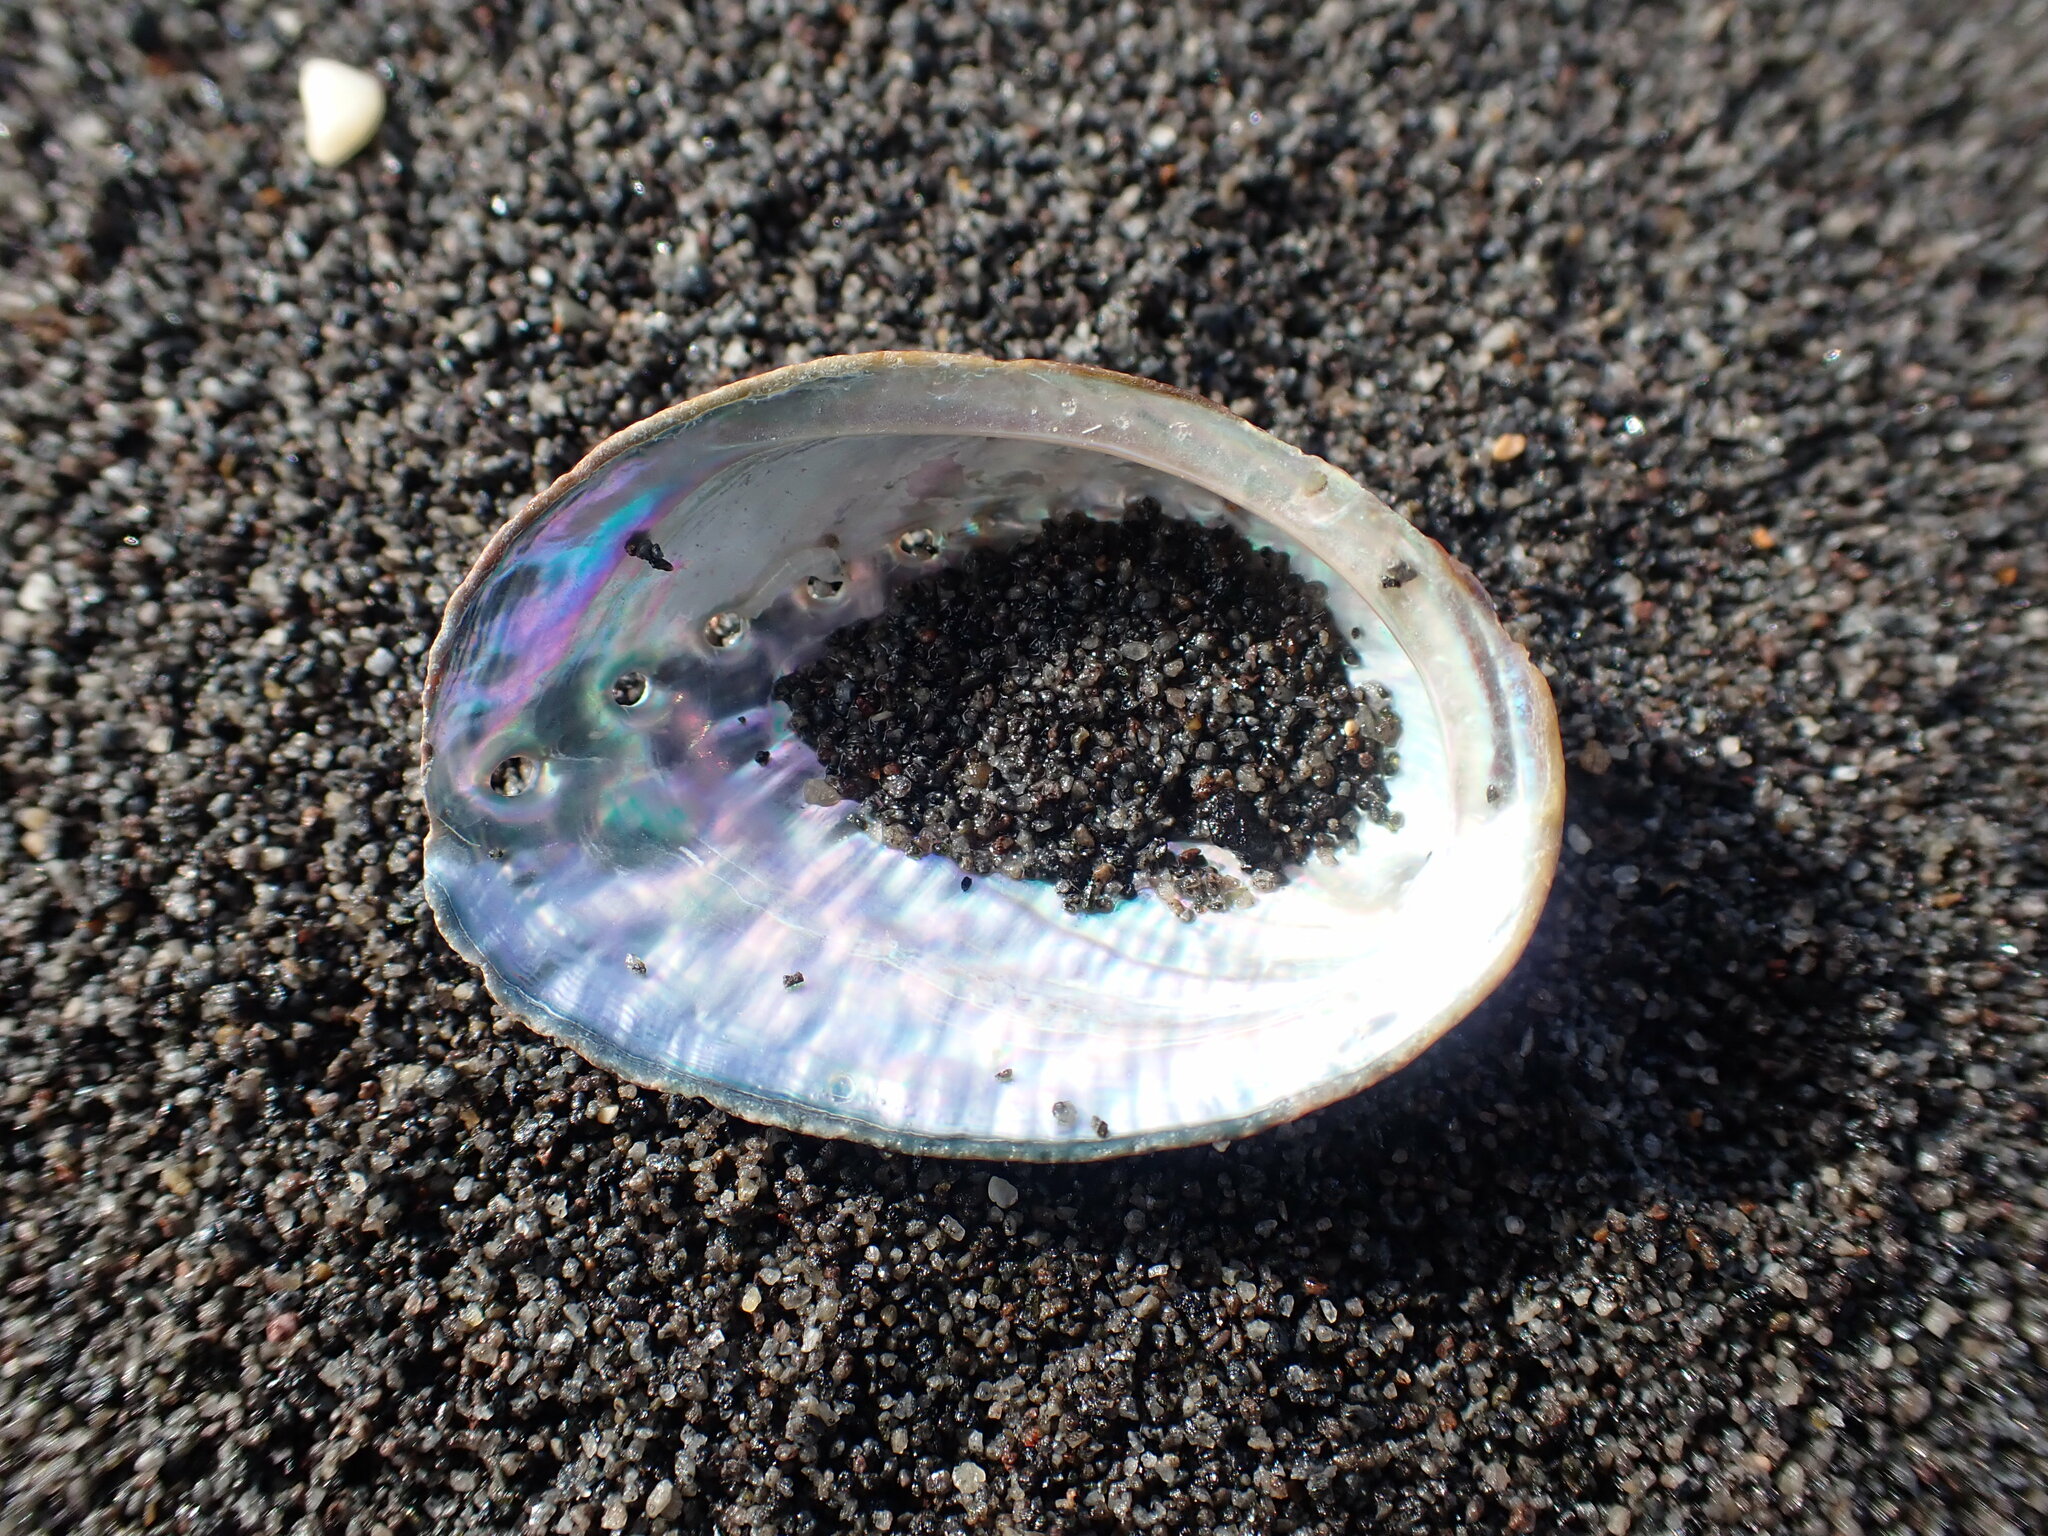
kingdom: Animalia
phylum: Mollusca
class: Gastropoda
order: Lepetellida
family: Haliotidae
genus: Haliotis
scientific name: Haliotis iris
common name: Abalone
